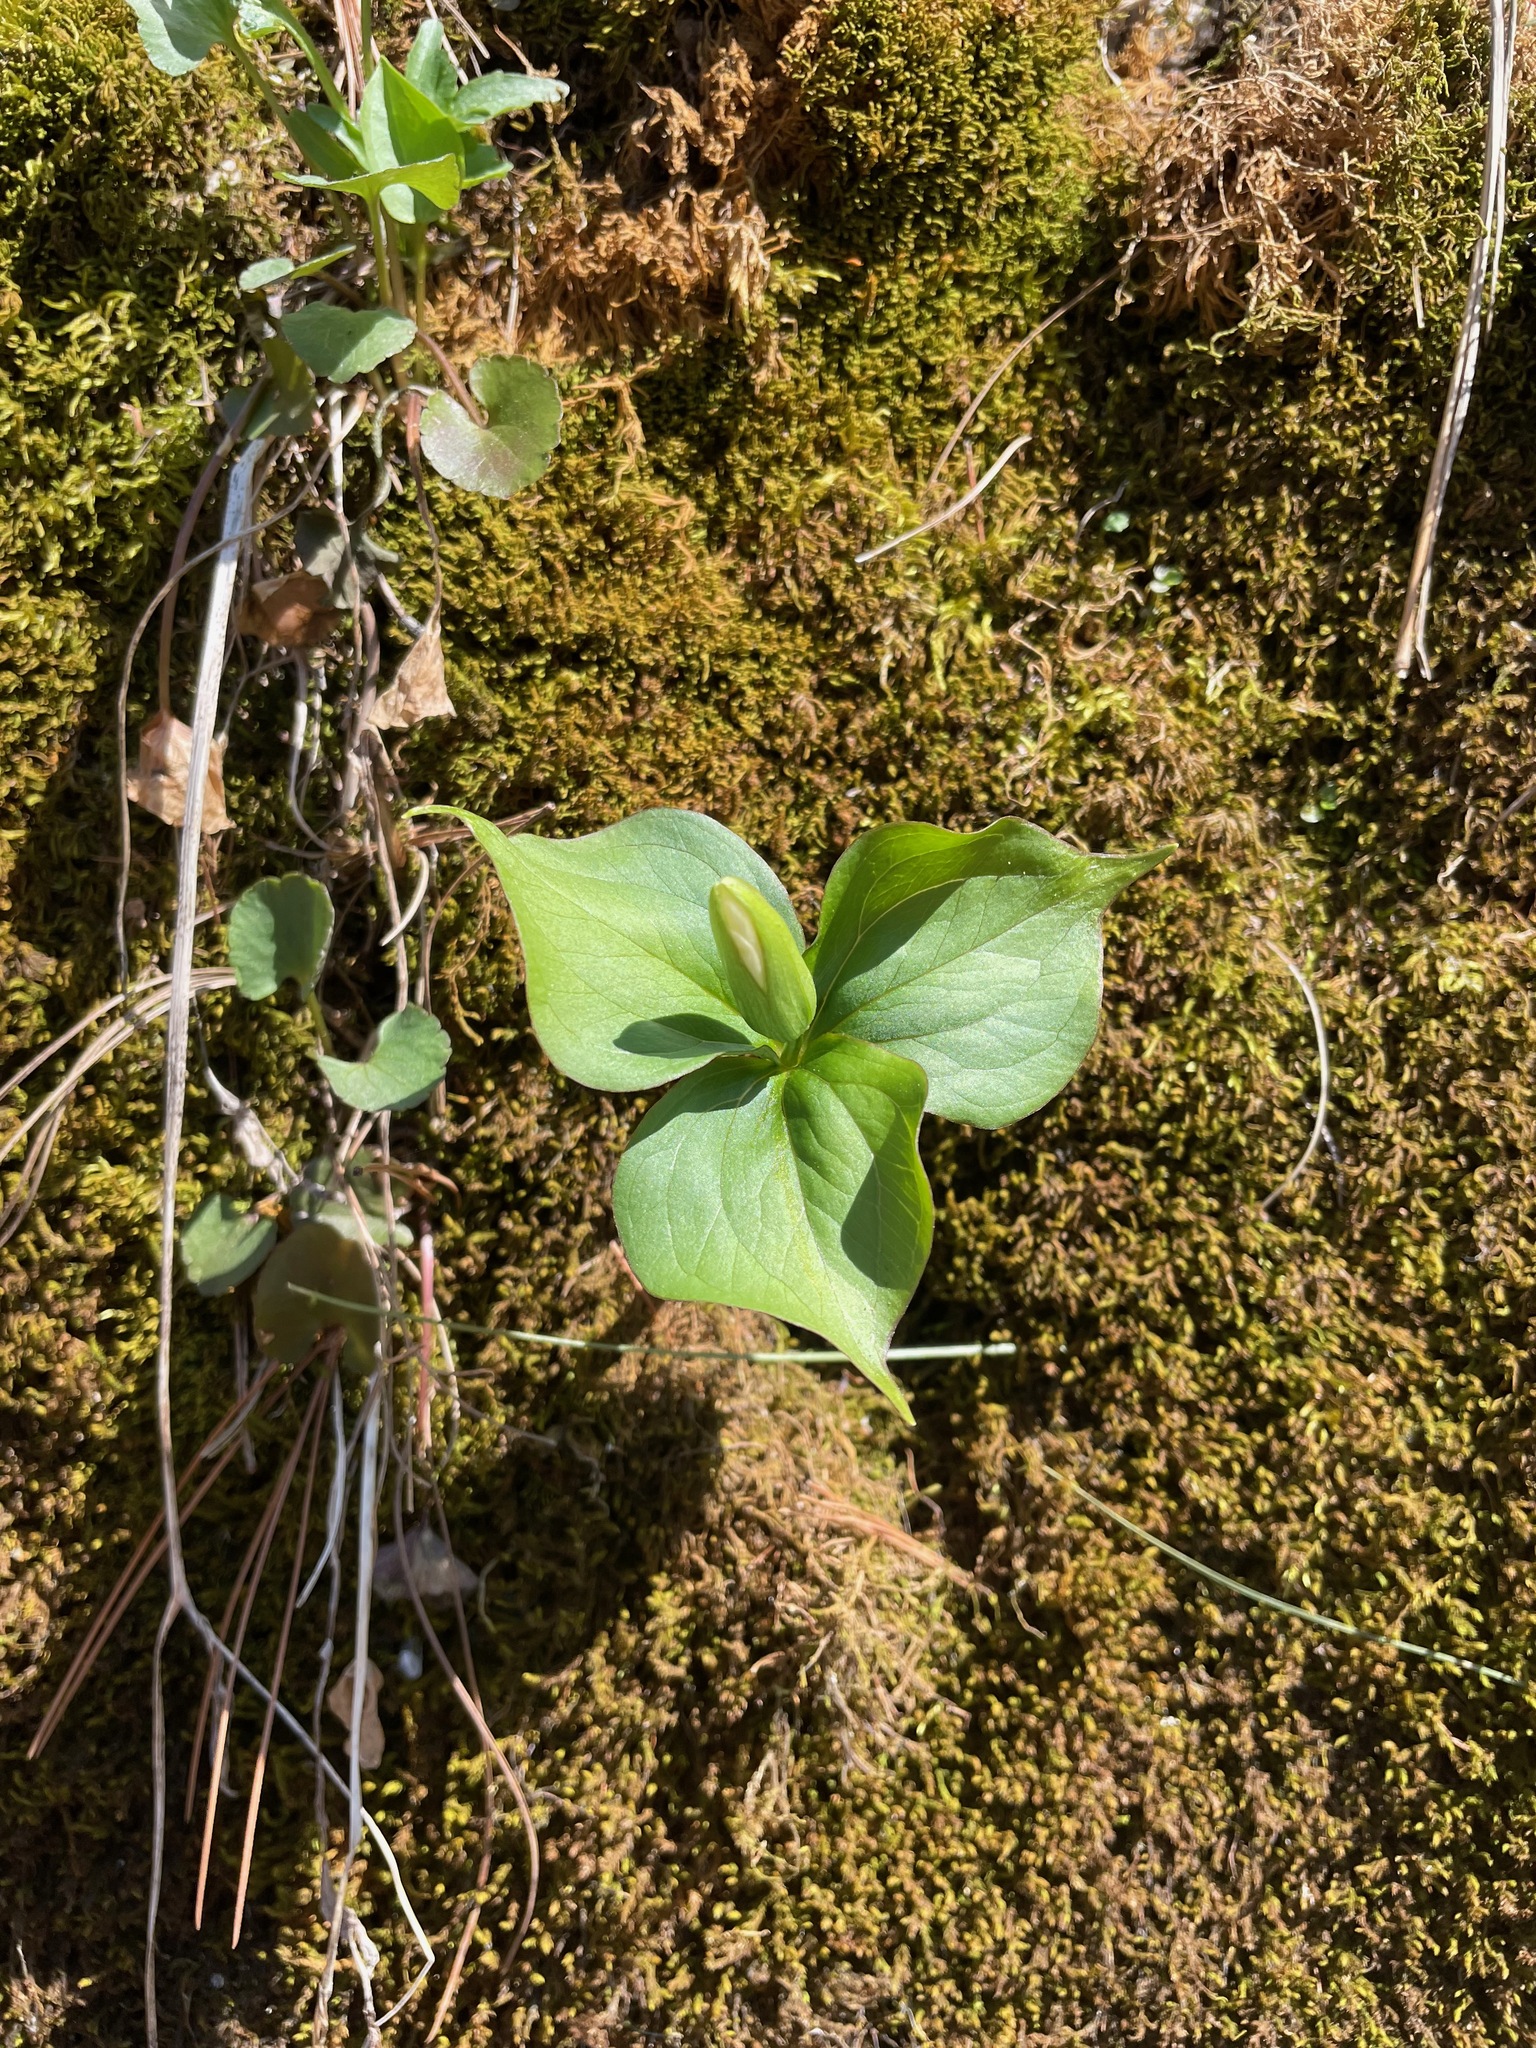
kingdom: Plantae
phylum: Tracheophyta
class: Liliopsida
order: Liliales
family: Melanthiaceae
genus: Trillium
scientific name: Trillium grandiflorum
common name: Great white trillium
